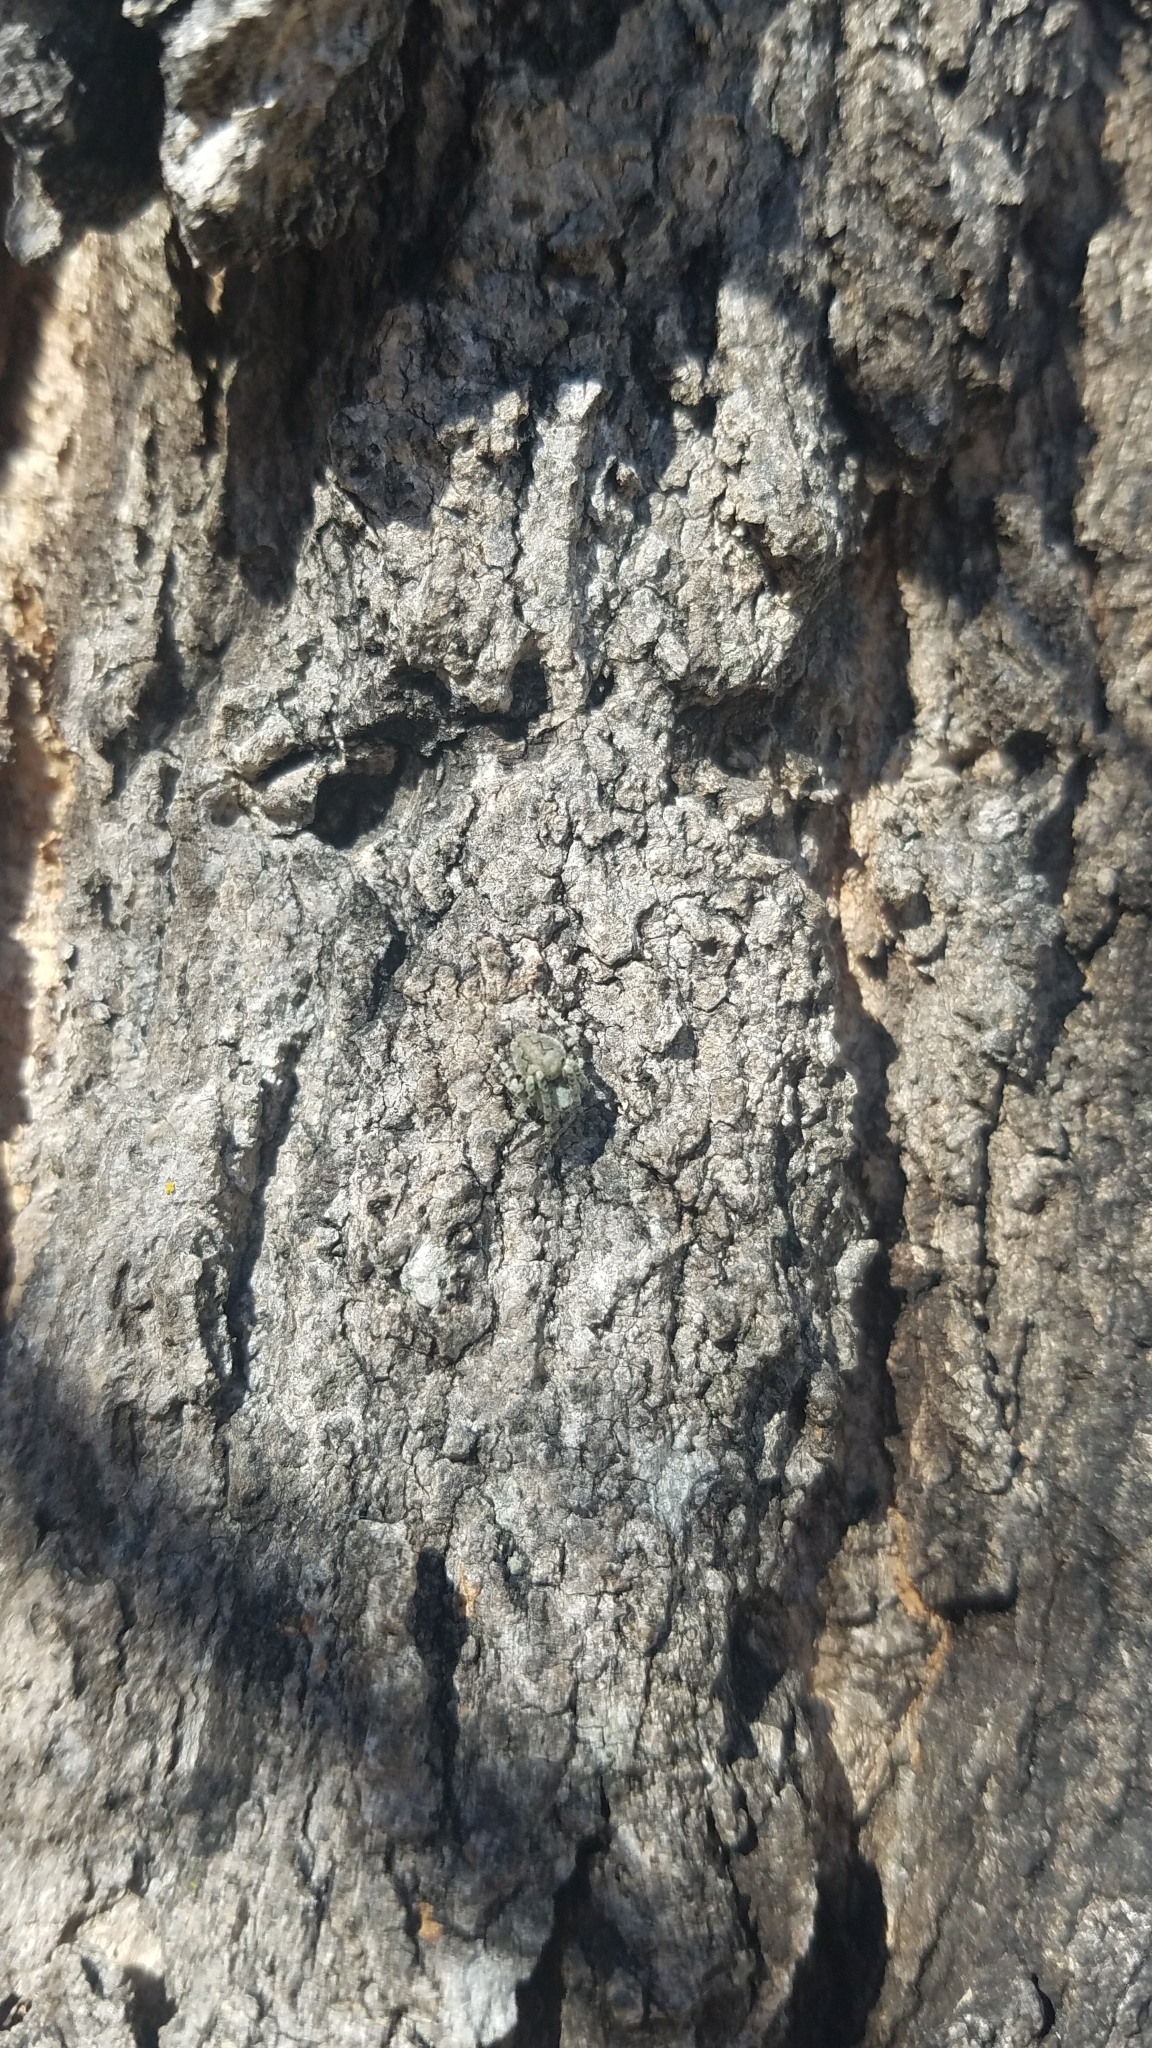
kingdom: Animalia
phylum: Arthropoda
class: Arachnida
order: Araneae
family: Araneidae
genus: Eustala
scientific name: Eustala anastera
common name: Orb weavers
